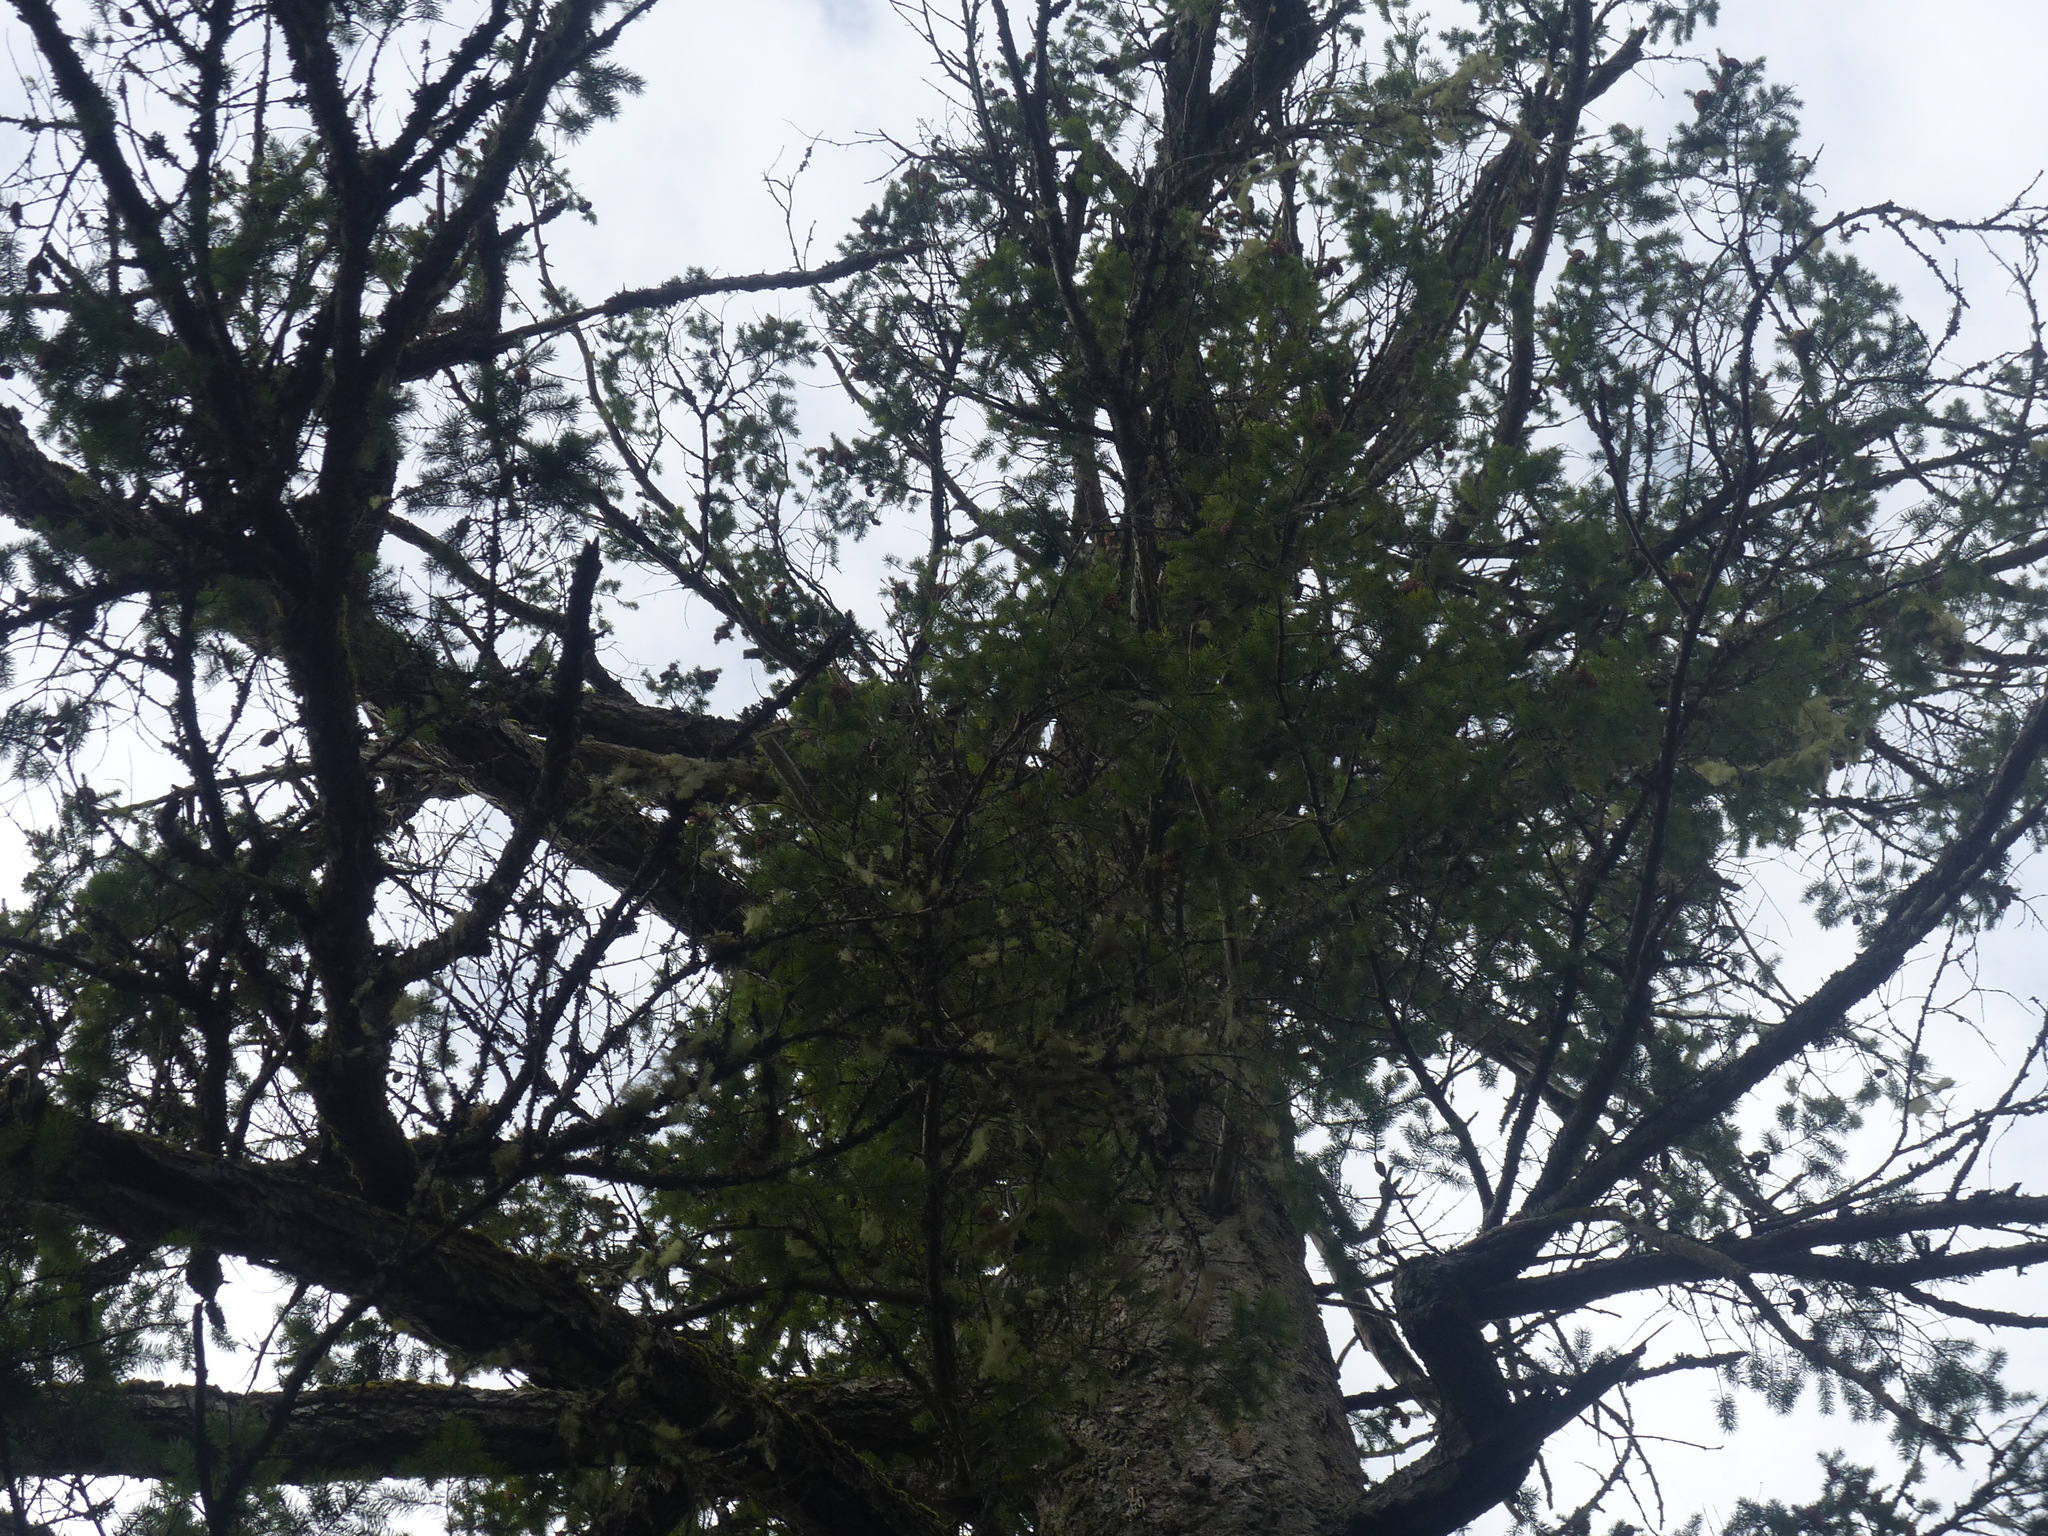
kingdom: Plantae
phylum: Tracheophyta
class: Pinopsida
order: Pinales
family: Pinaceae
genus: Pseudotsuga
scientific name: Pseudotsuga menziesii
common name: Douglas fir
